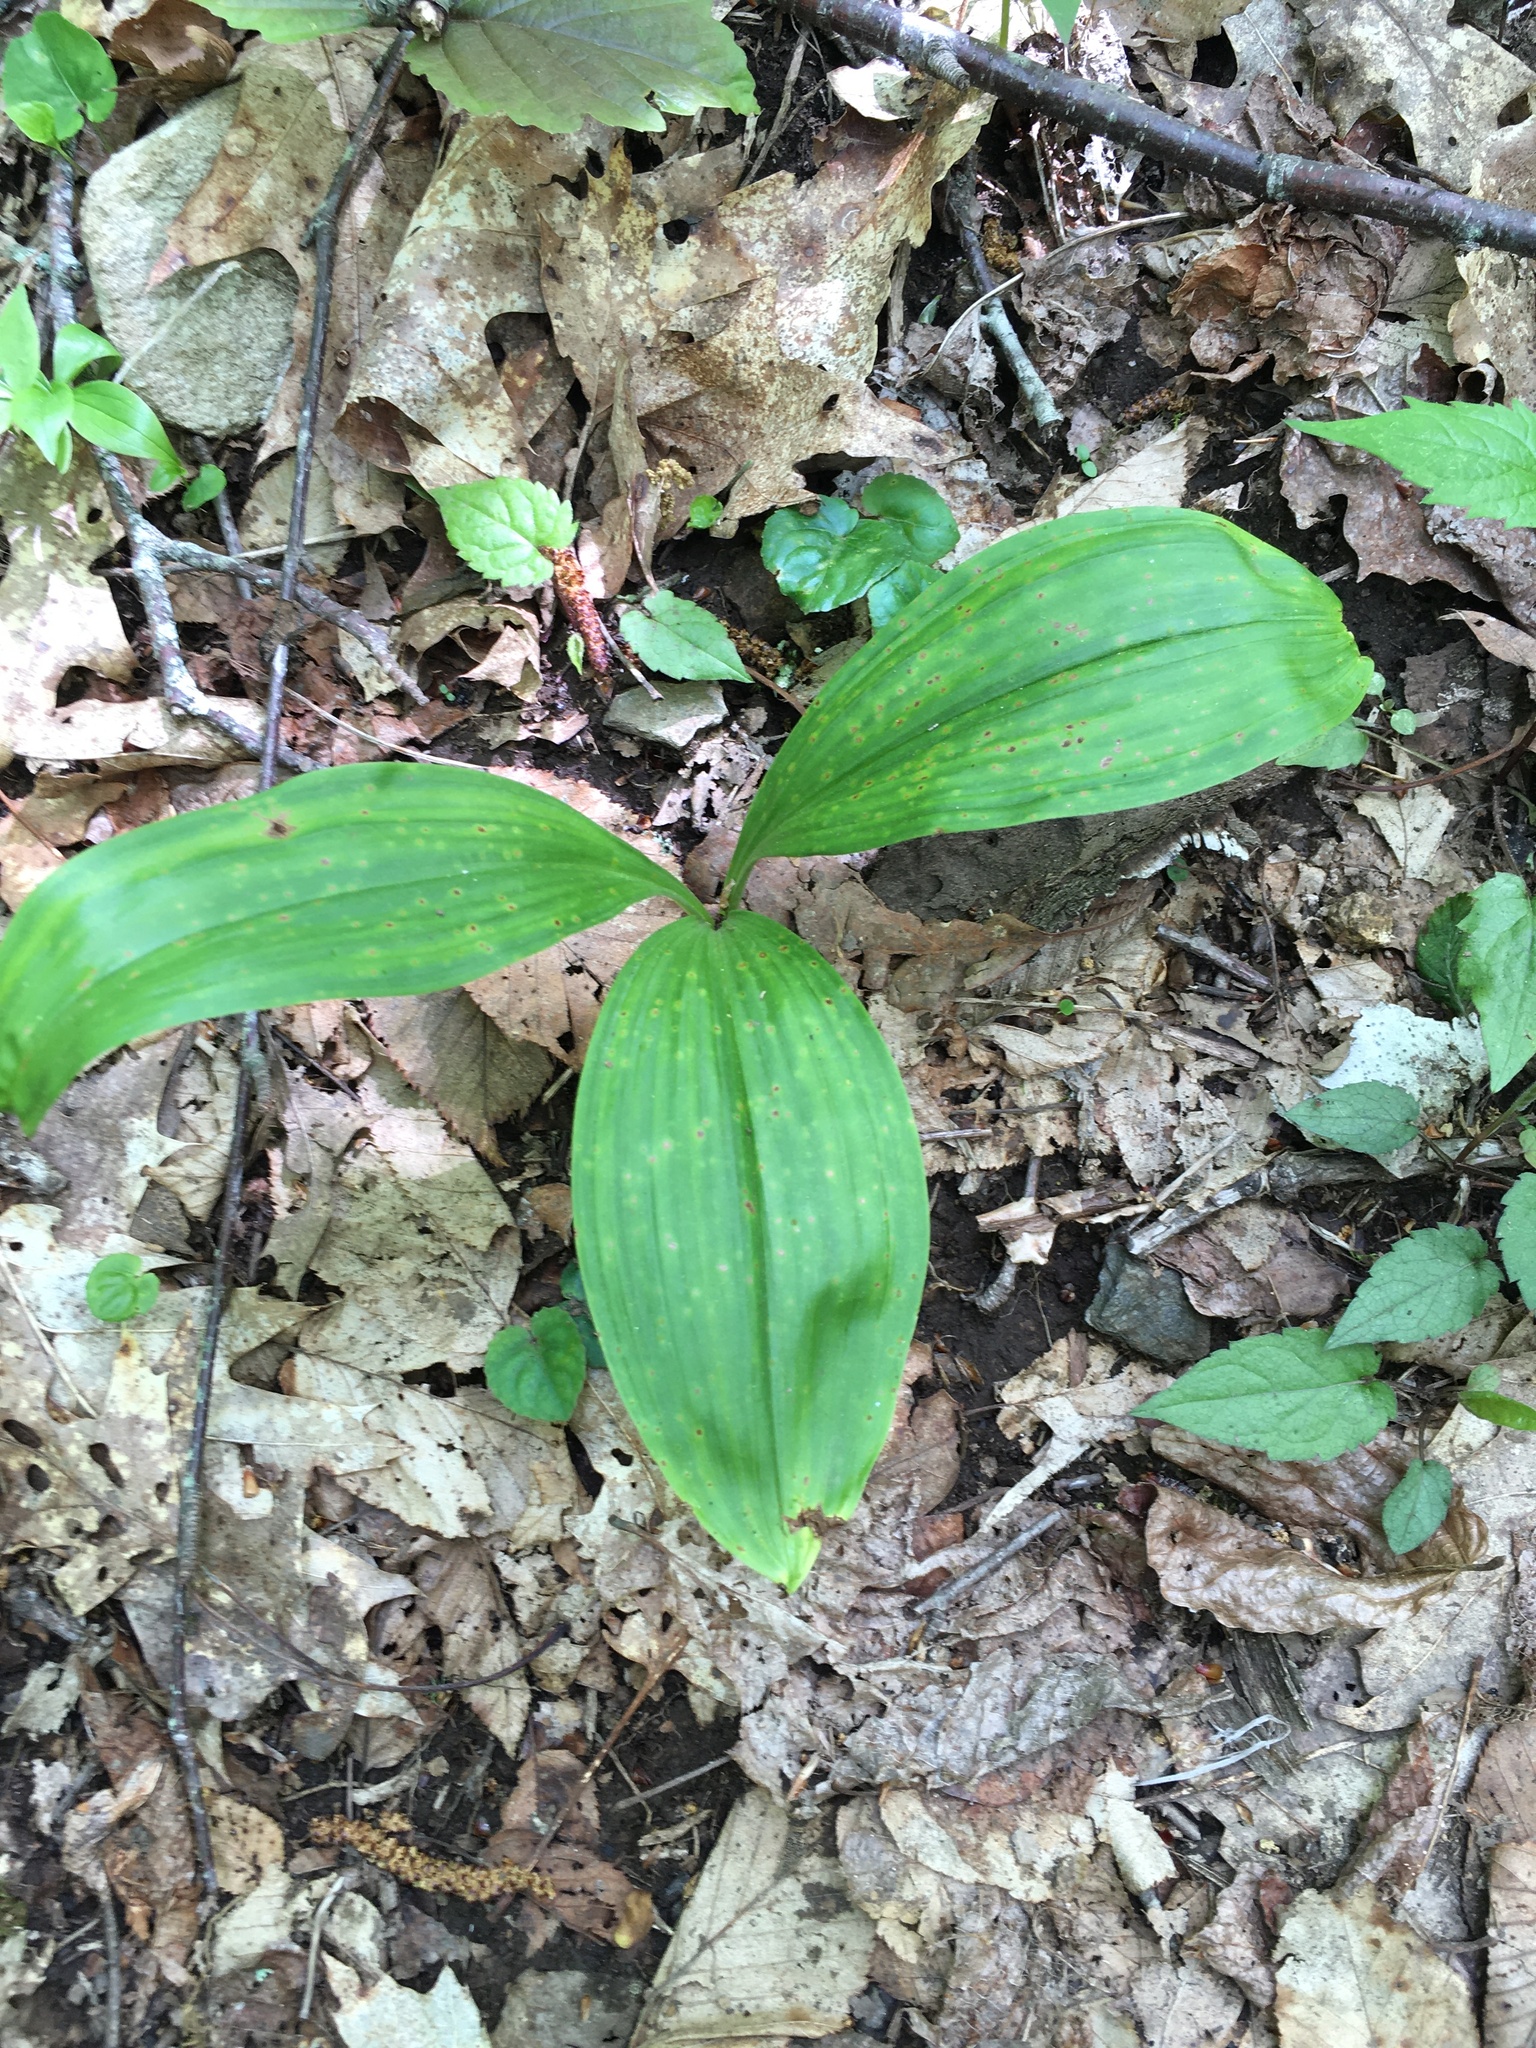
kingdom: Plantae
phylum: Tracheophyta
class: Liliopsida
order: Liliales
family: Melanthiaceae
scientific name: Melanthiaceae
